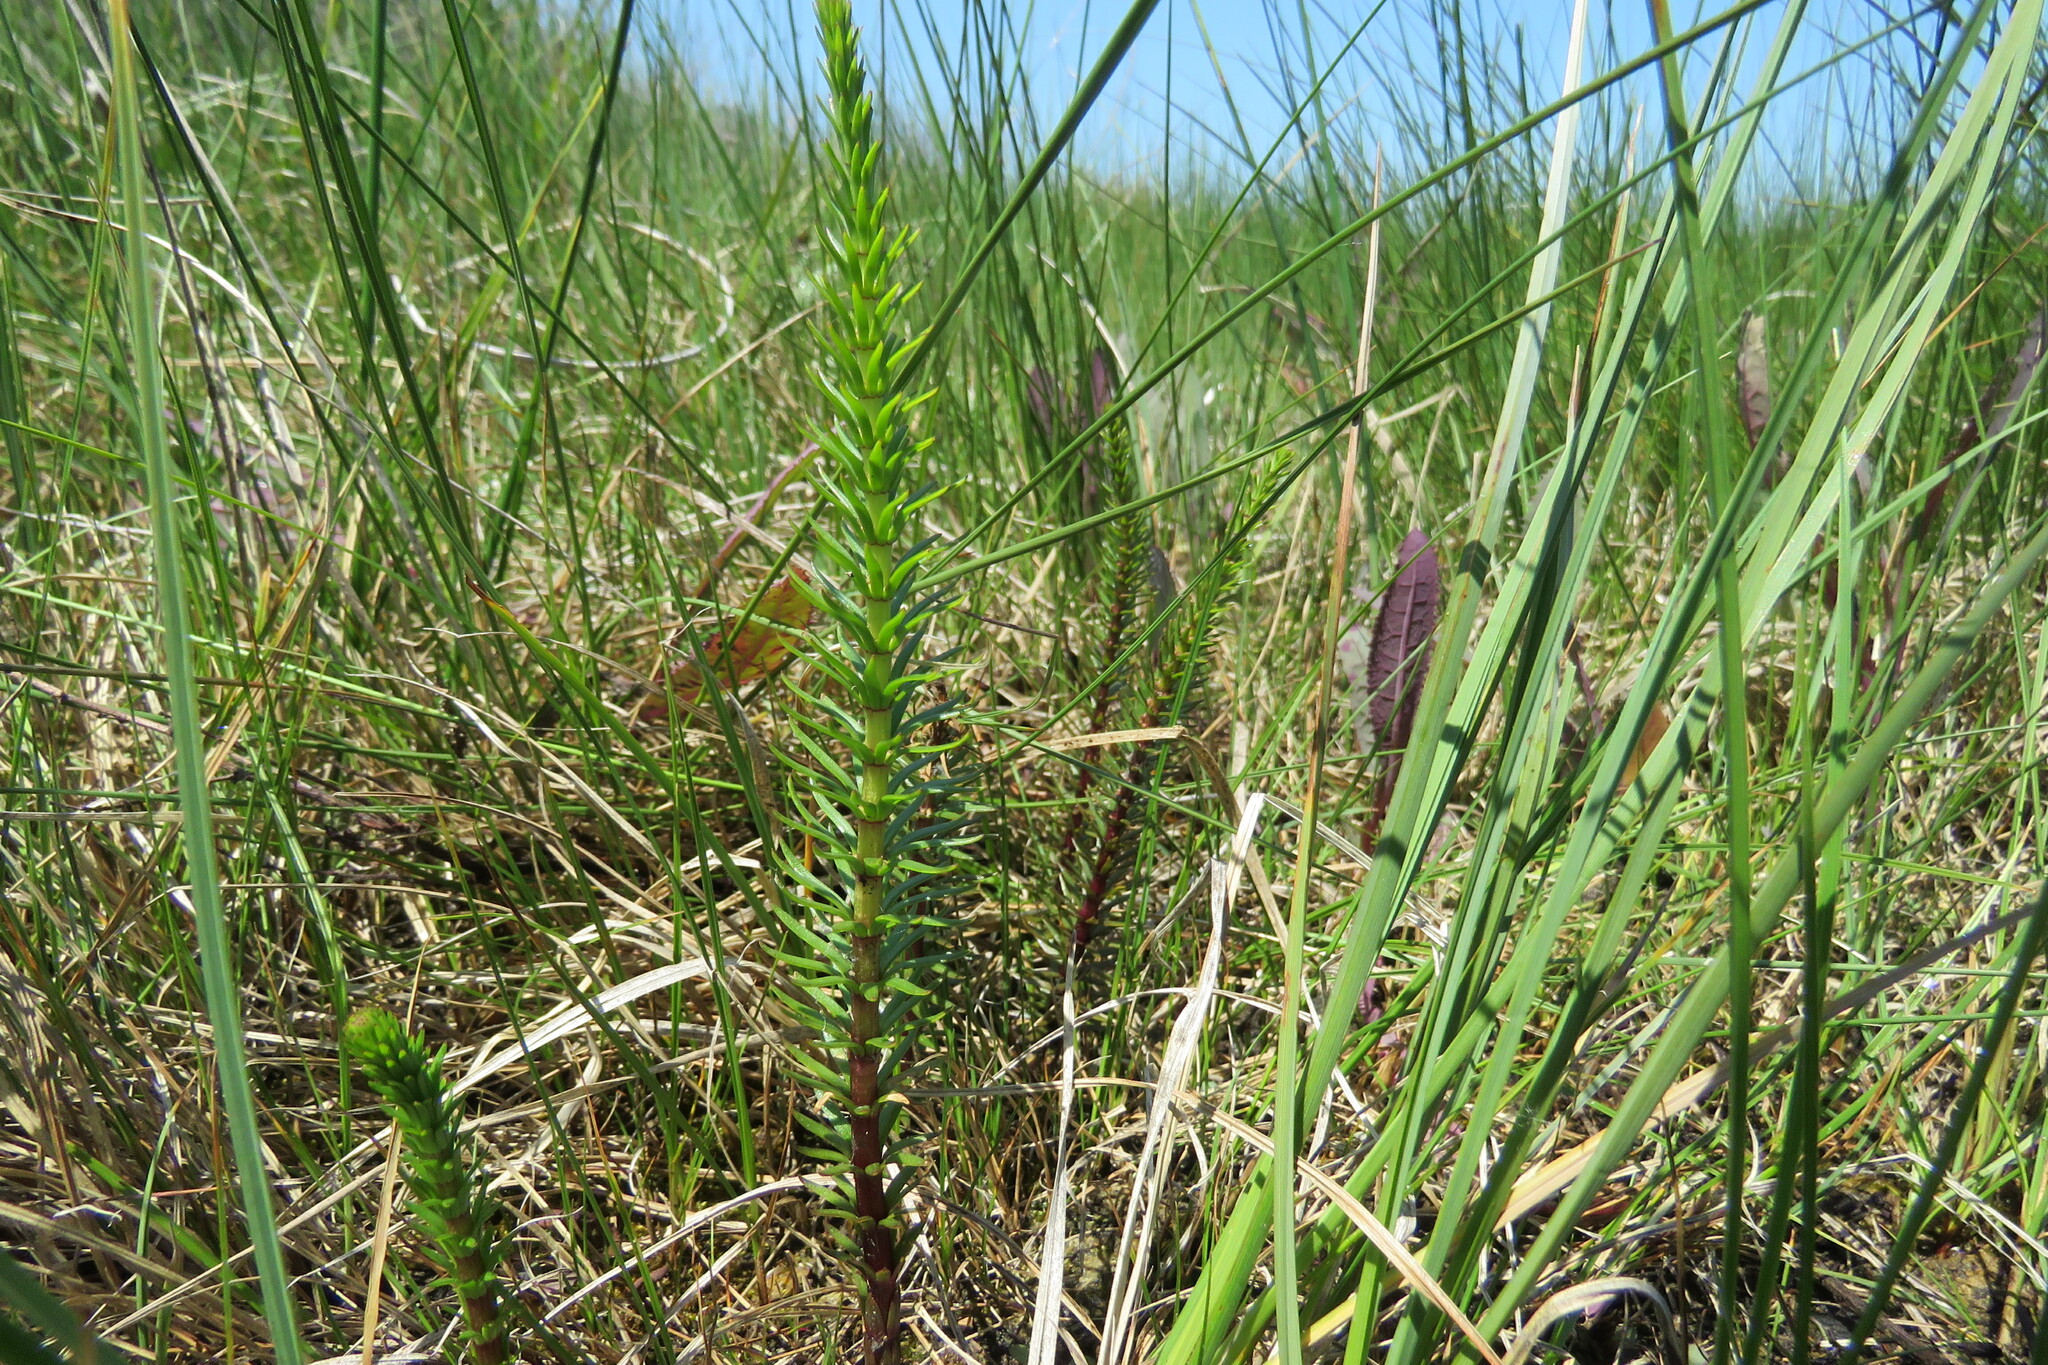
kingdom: Plantae
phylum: Tracheophyta
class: Magnoliopsida
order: Lamiales
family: Plantaginaceae
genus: Hippuris
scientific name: Hippuris vulgaris
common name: Mare's-tail
